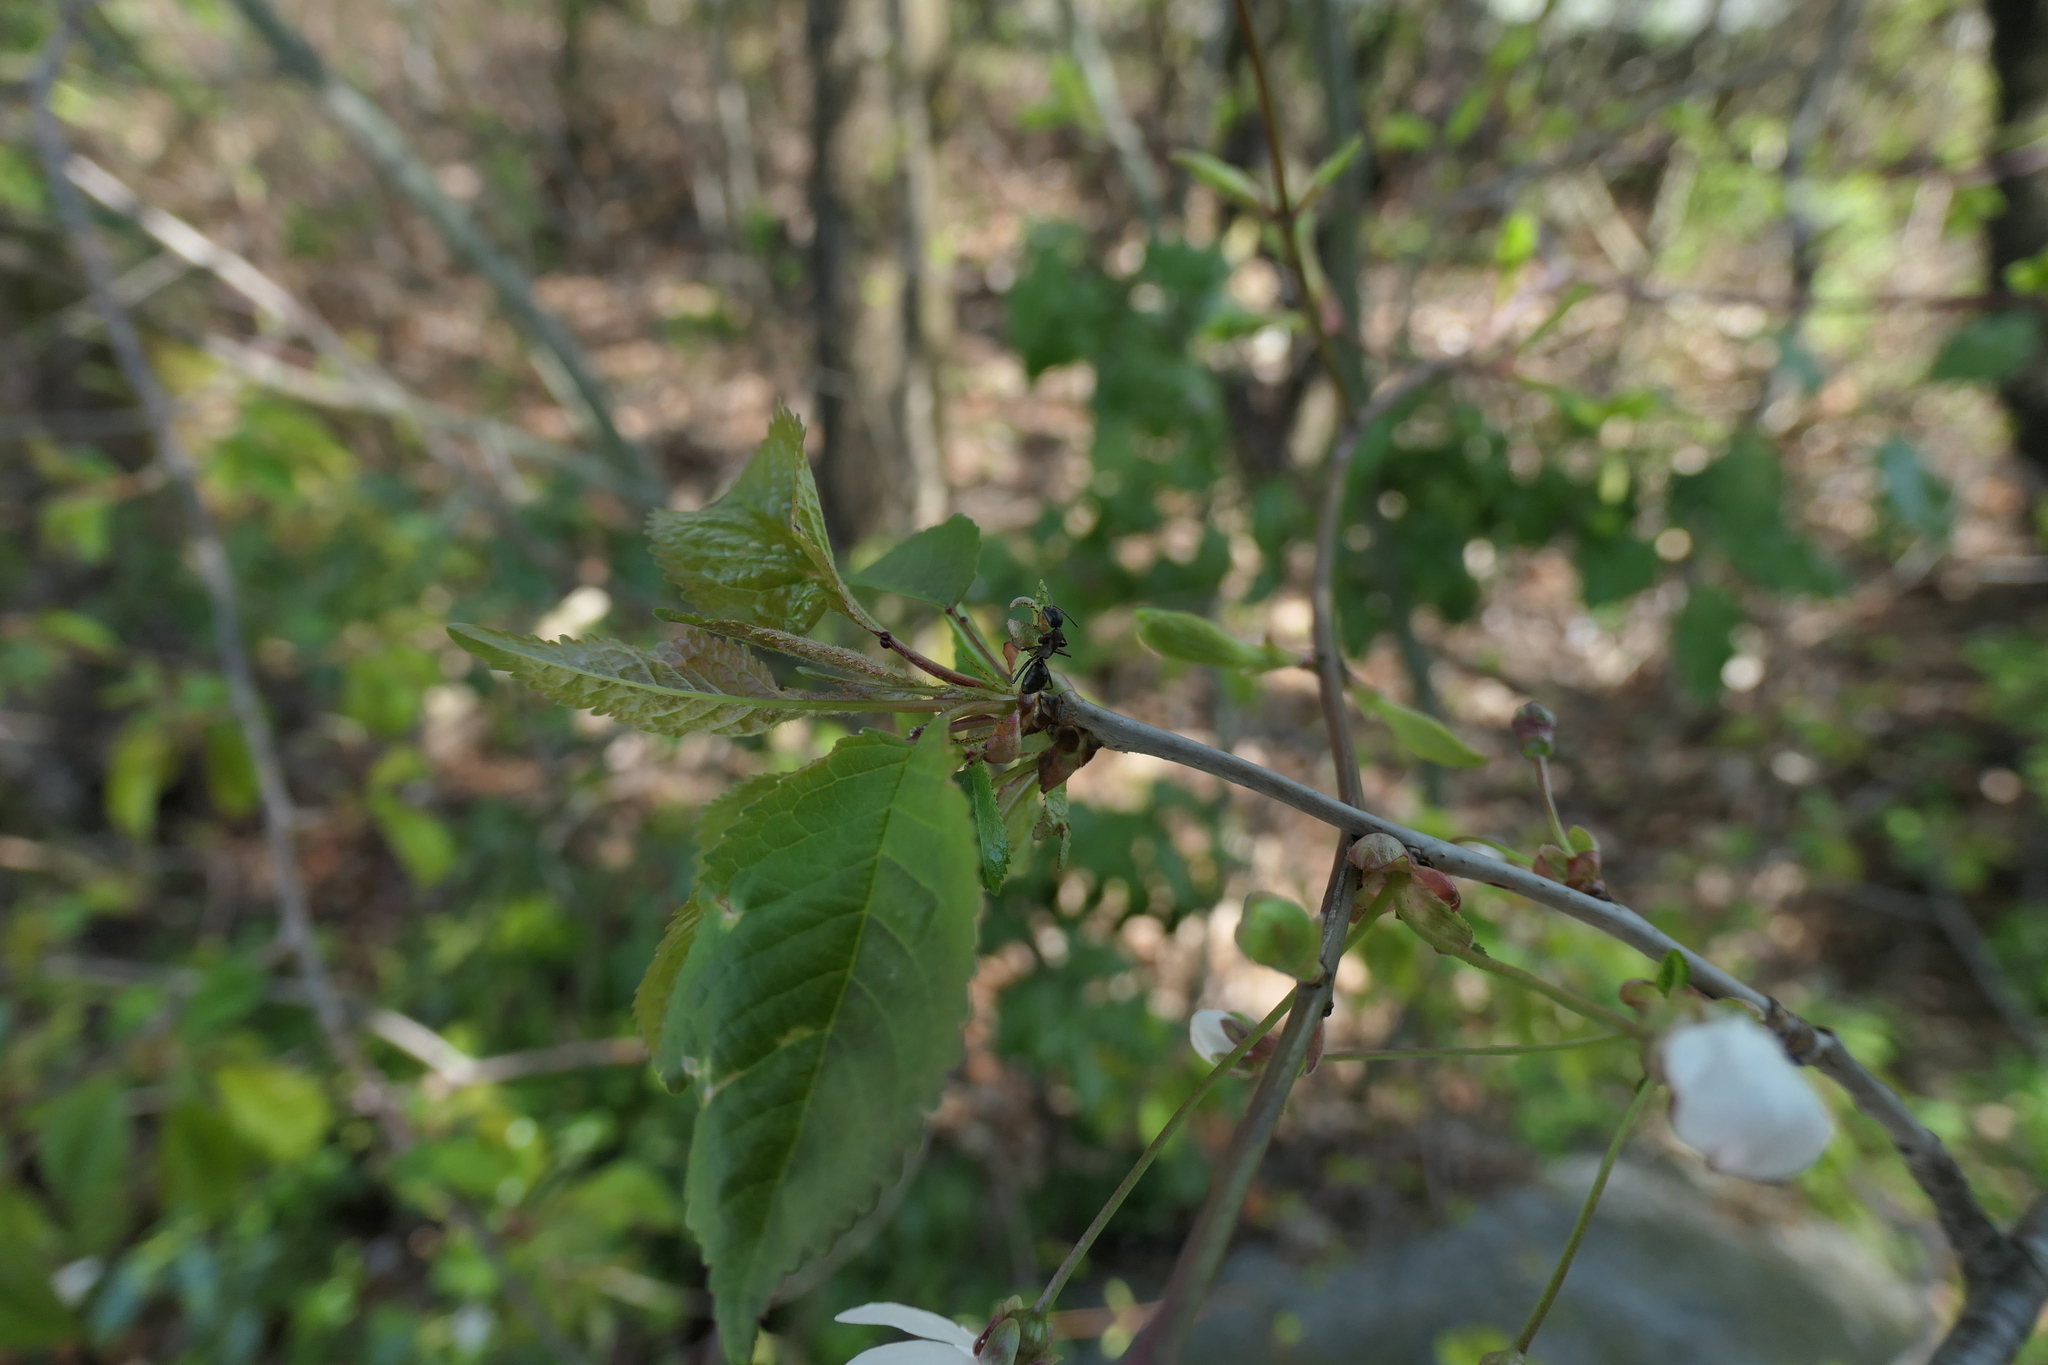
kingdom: Animalia
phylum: Arthropoda
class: Insecta
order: Hymenoptera
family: Formicidae
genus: Camponotus
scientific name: Camponotus vicinus
